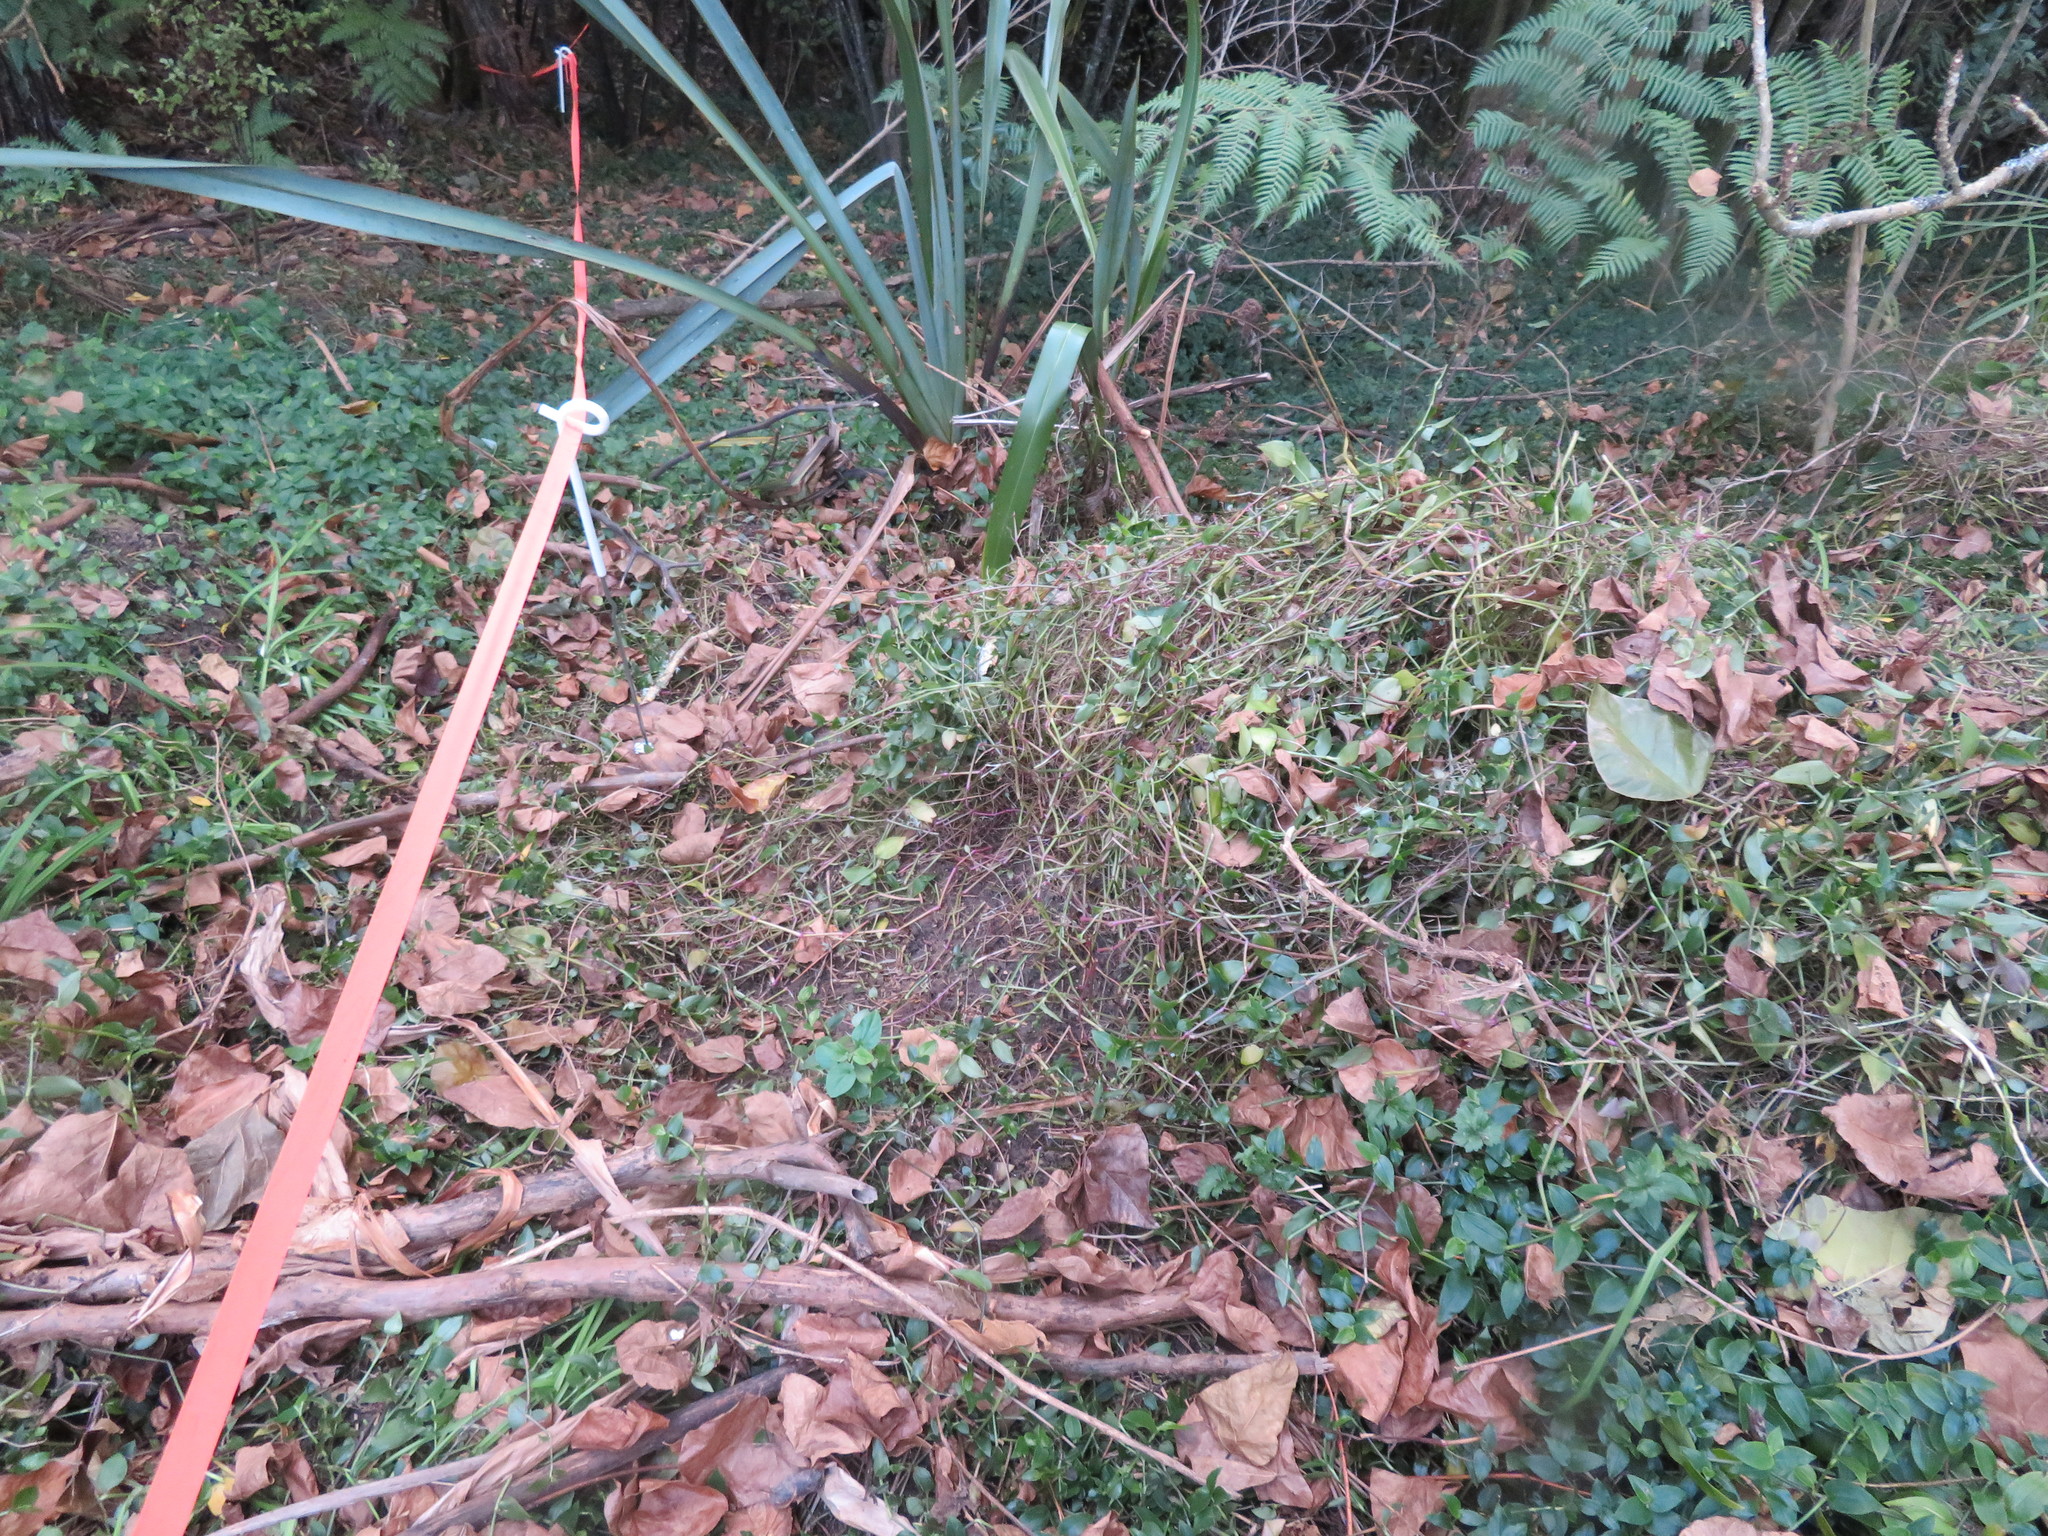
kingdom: Plantae
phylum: Tracheophyta
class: Liliopsida
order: Commelinales
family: Commelinaceae
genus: Tradescantia
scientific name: Tradescantia fluminensis
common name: Wandering-jew
